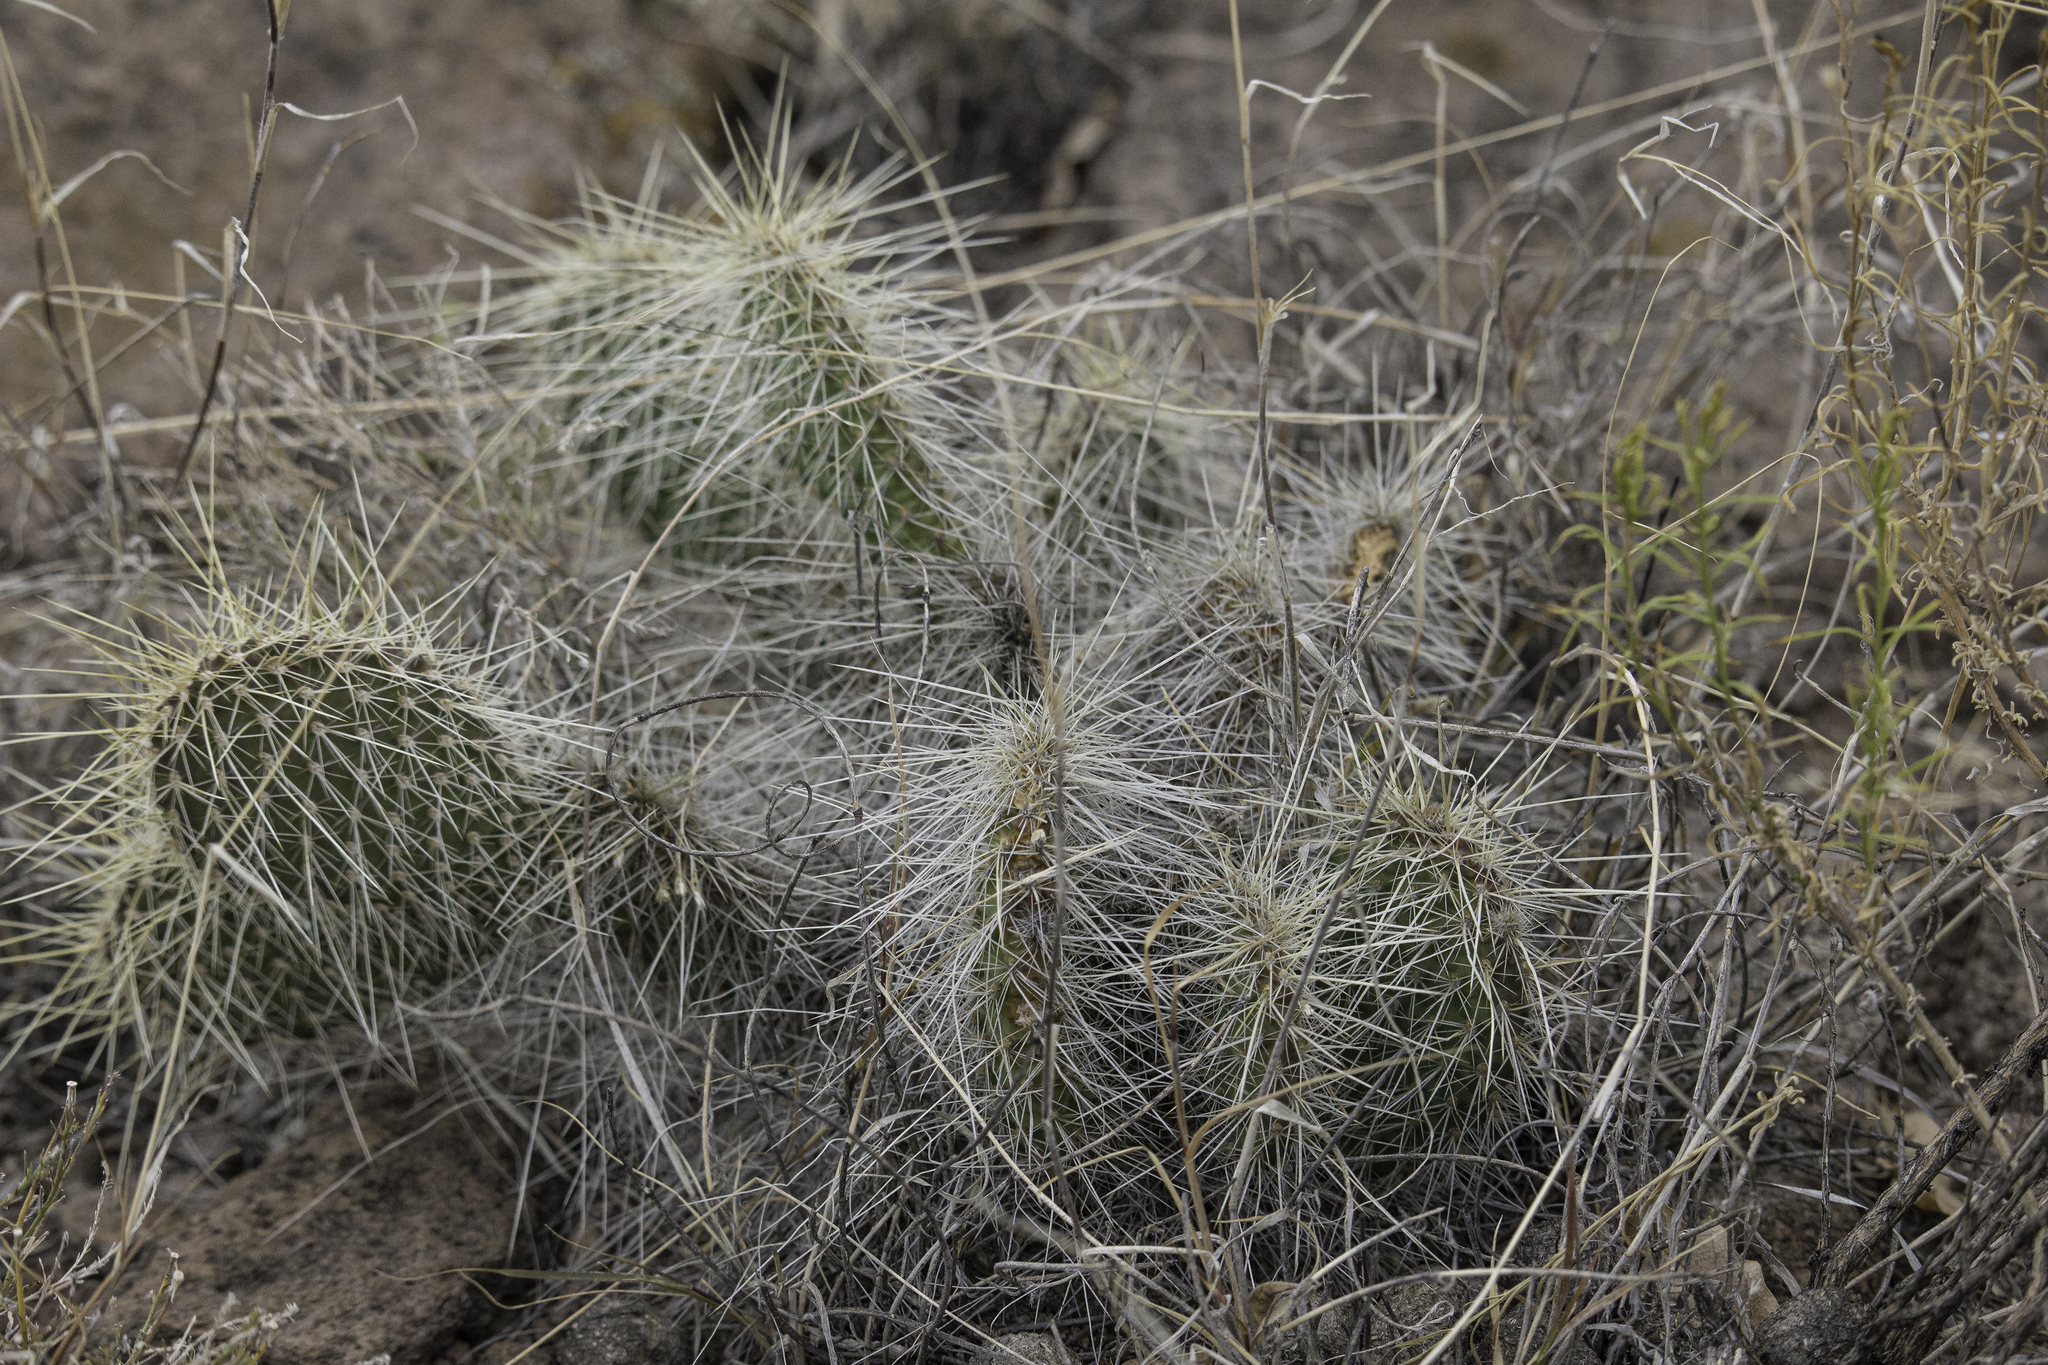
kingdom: Plantae
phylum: Tracheophyta
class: Magnoliopsida
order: Caryophyllales
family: Cactaceae
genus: Opuntia
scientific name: Opuntia polyacantha
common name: Plains prickly-pear
